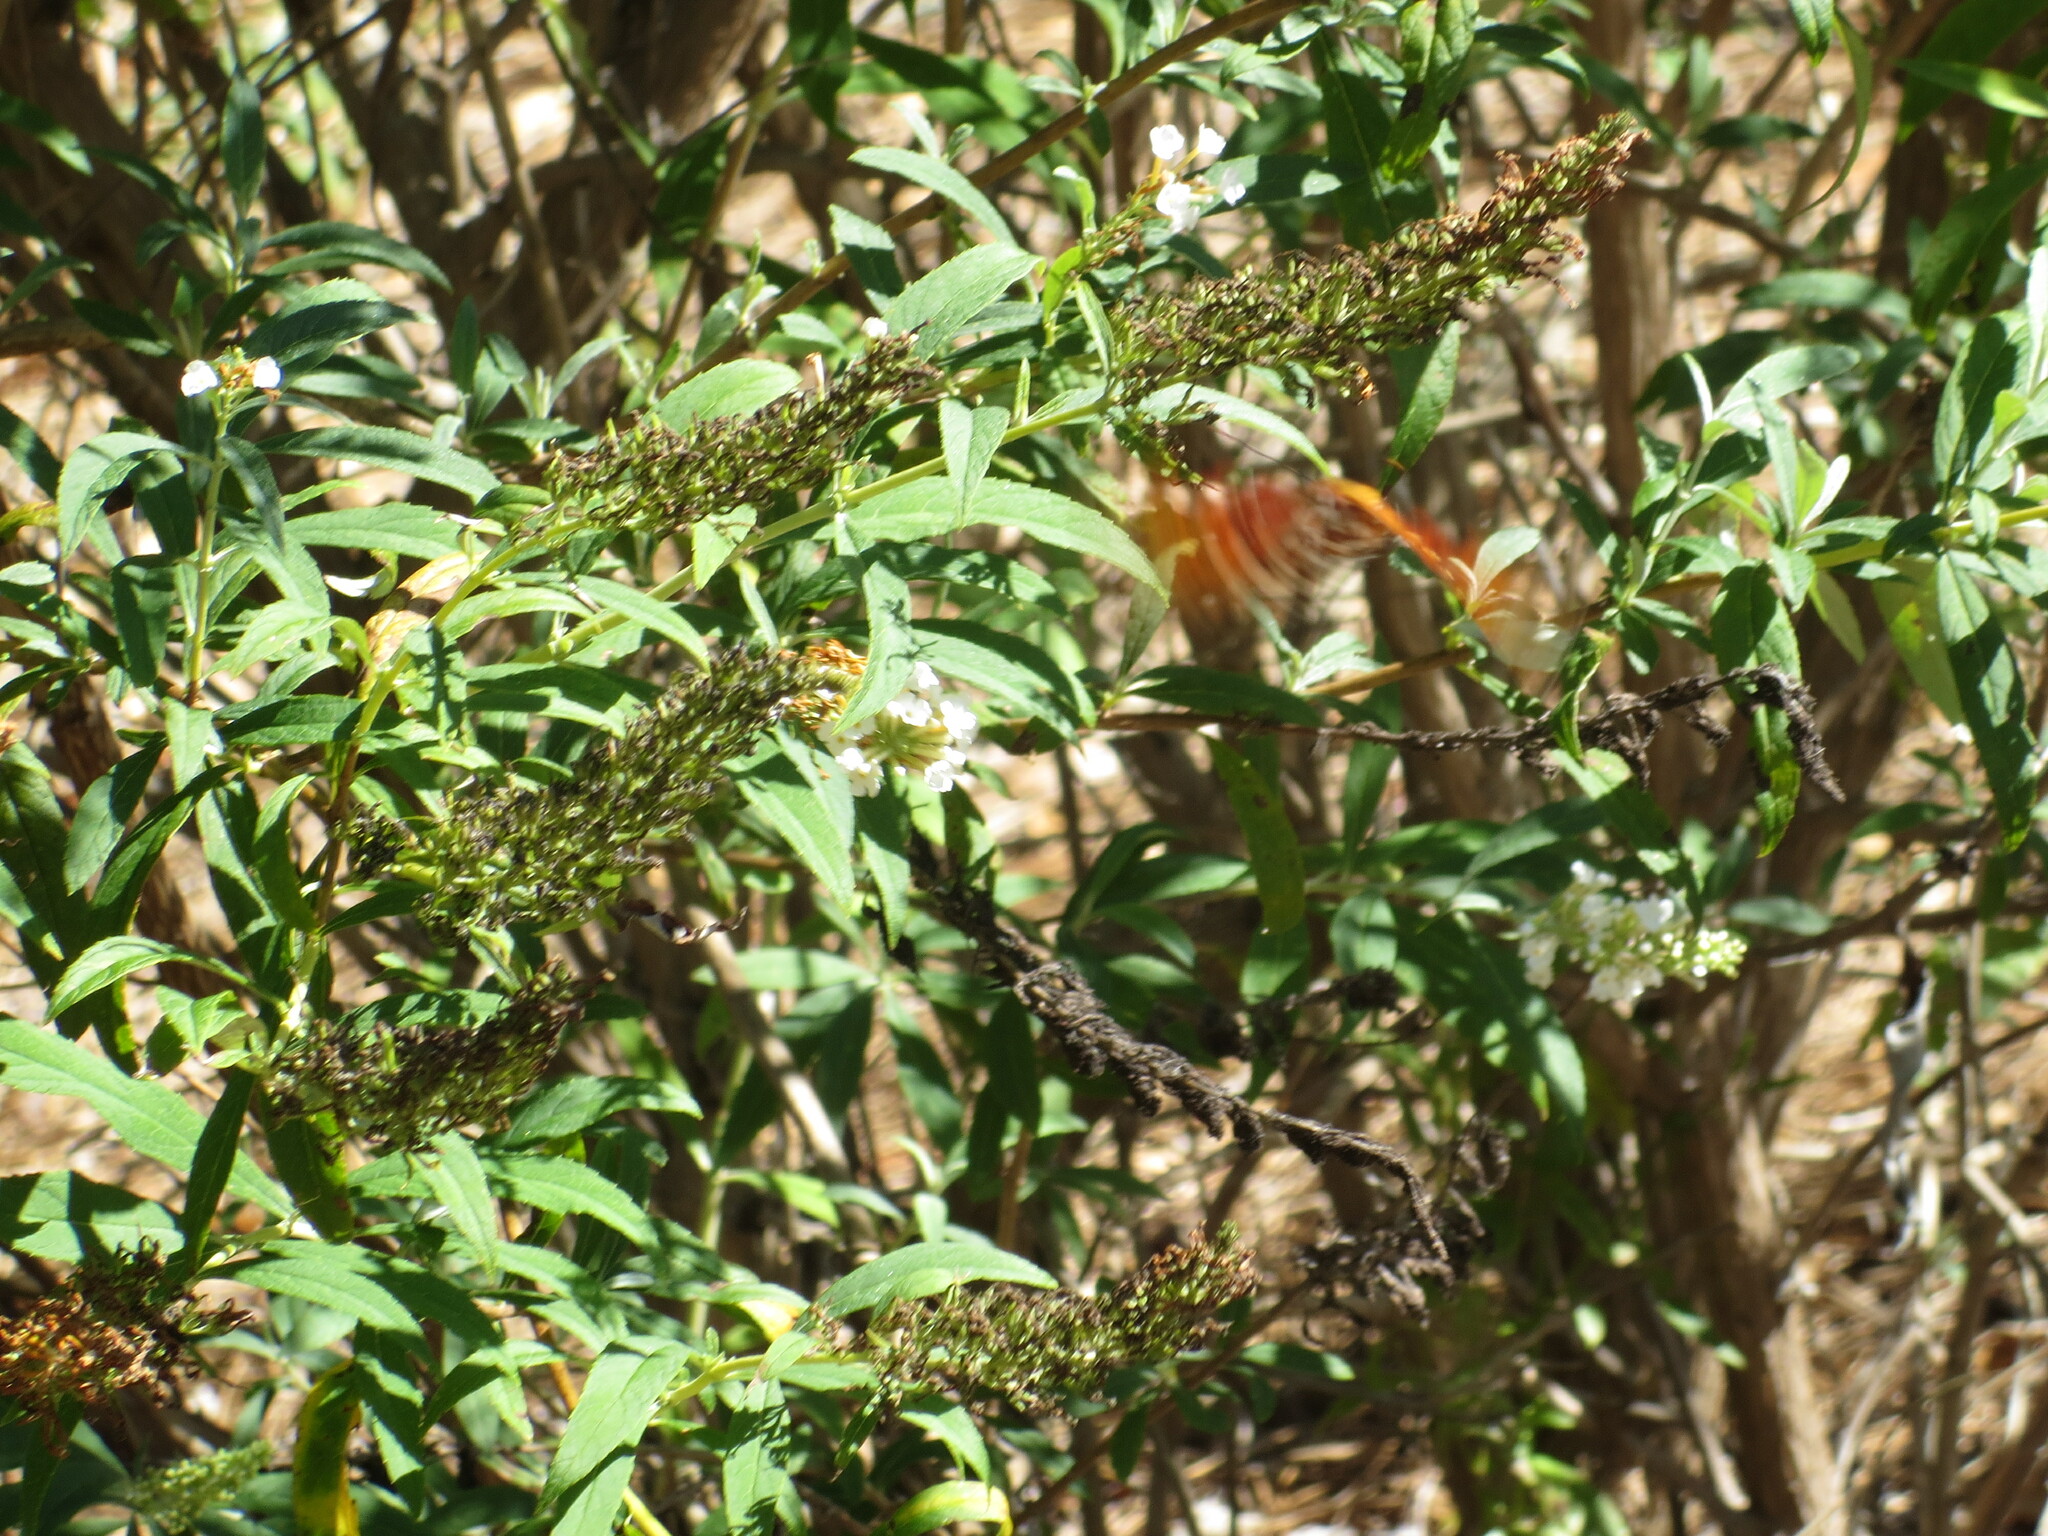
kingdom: Animalia
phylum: Arthropoda
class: Insecta
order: Lepidoptera
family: Nymphalidae
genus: Dione
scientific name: Dione vanillae
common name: Gulf fritillary
